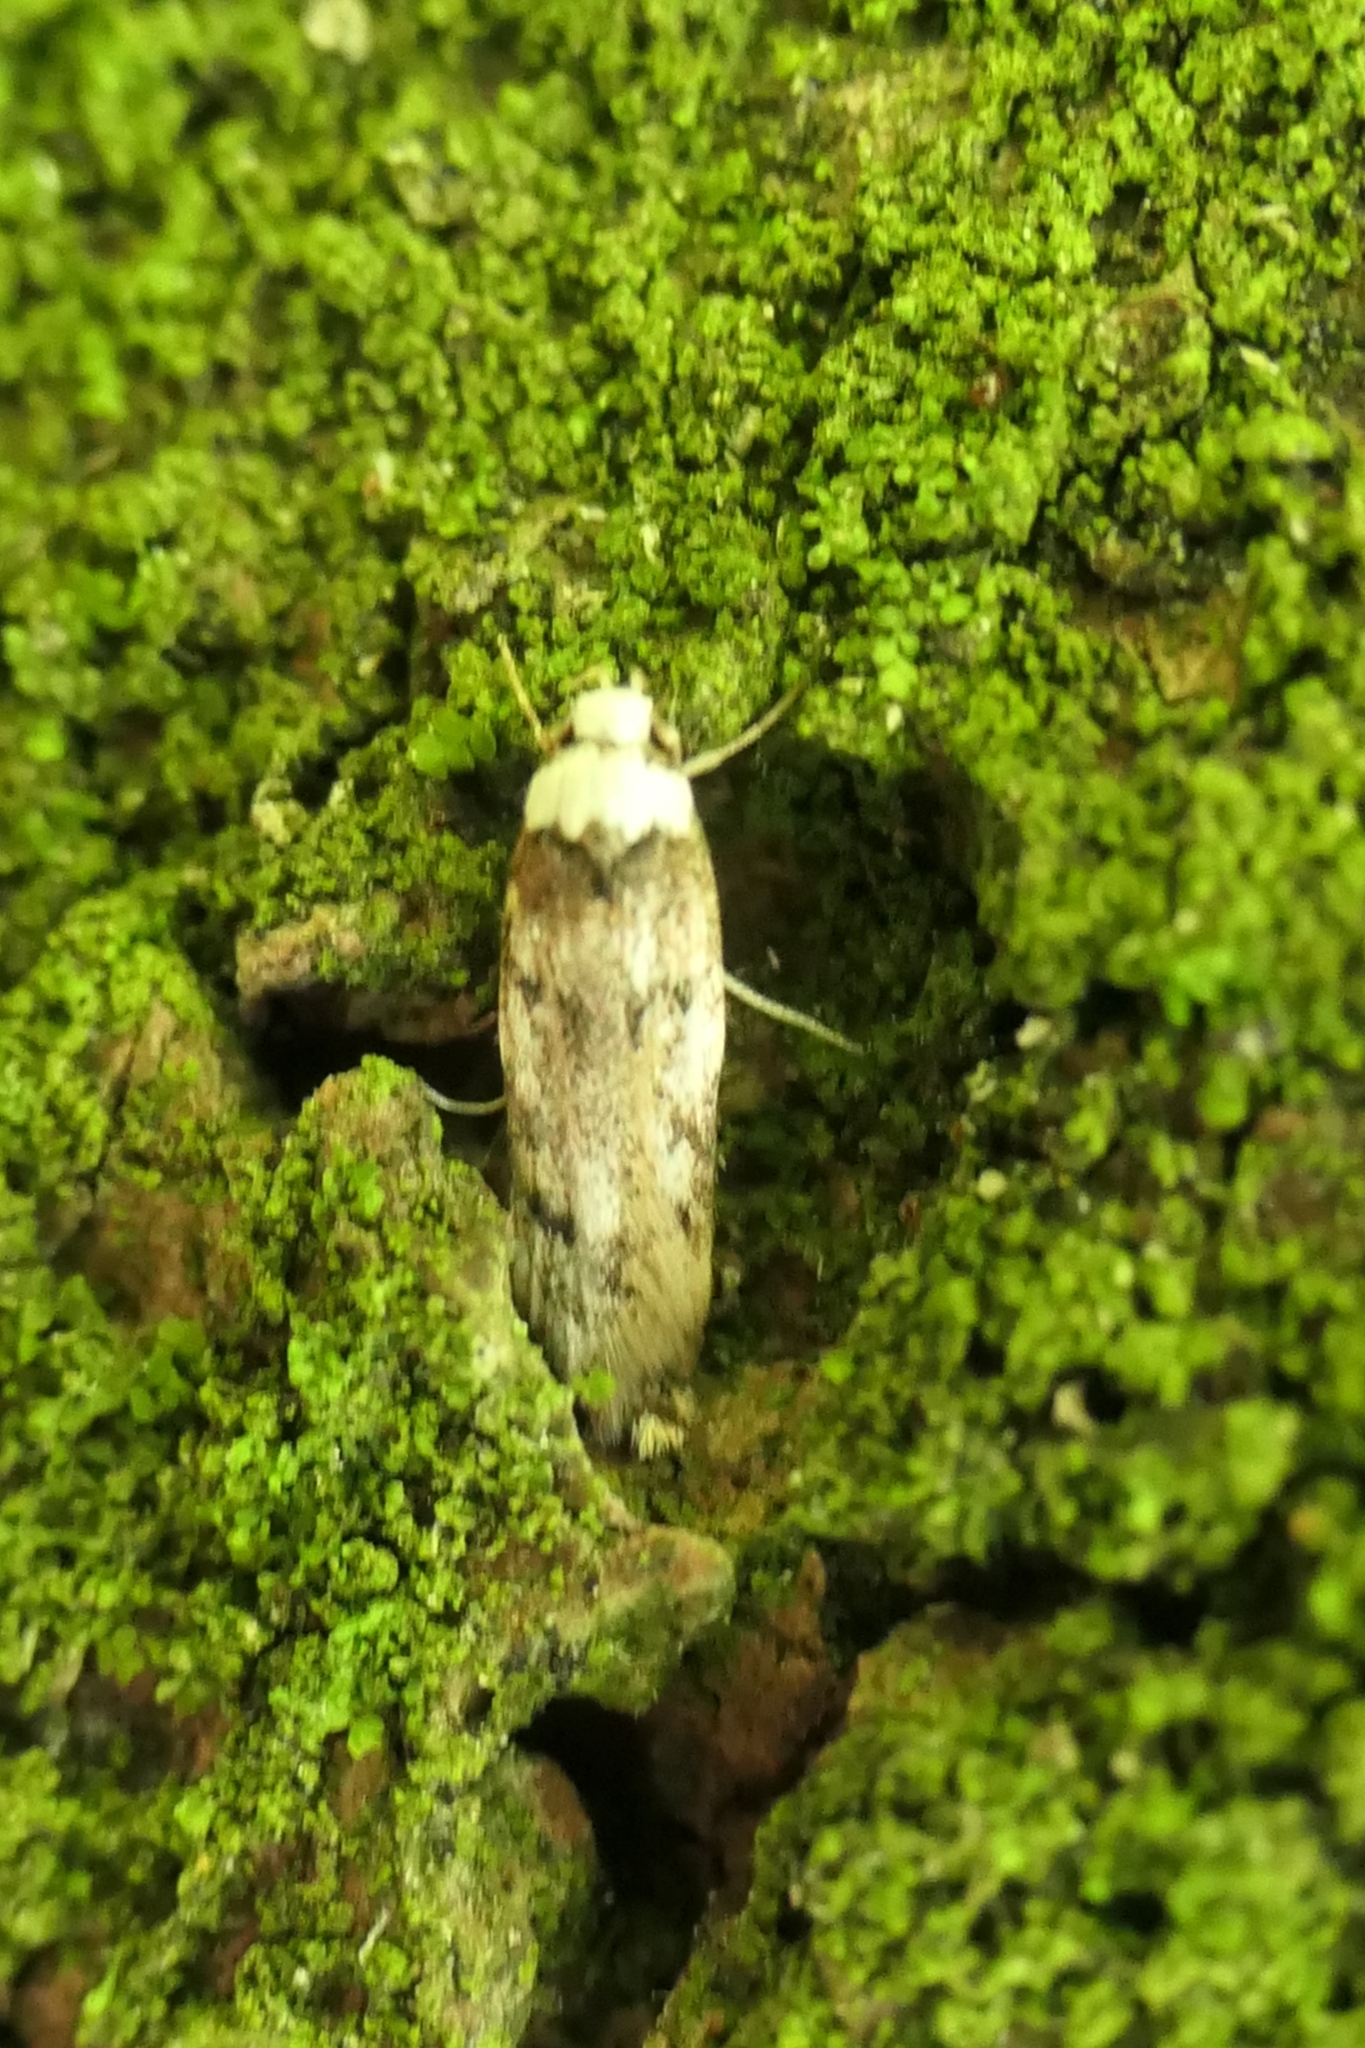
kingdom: Animalia
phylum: Arthropoda
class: Insecta
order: Lepidoptera
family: Oecophoridae
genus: Endrosis
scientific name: Endrosis sarcitrella
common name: White-shouldered house moth
